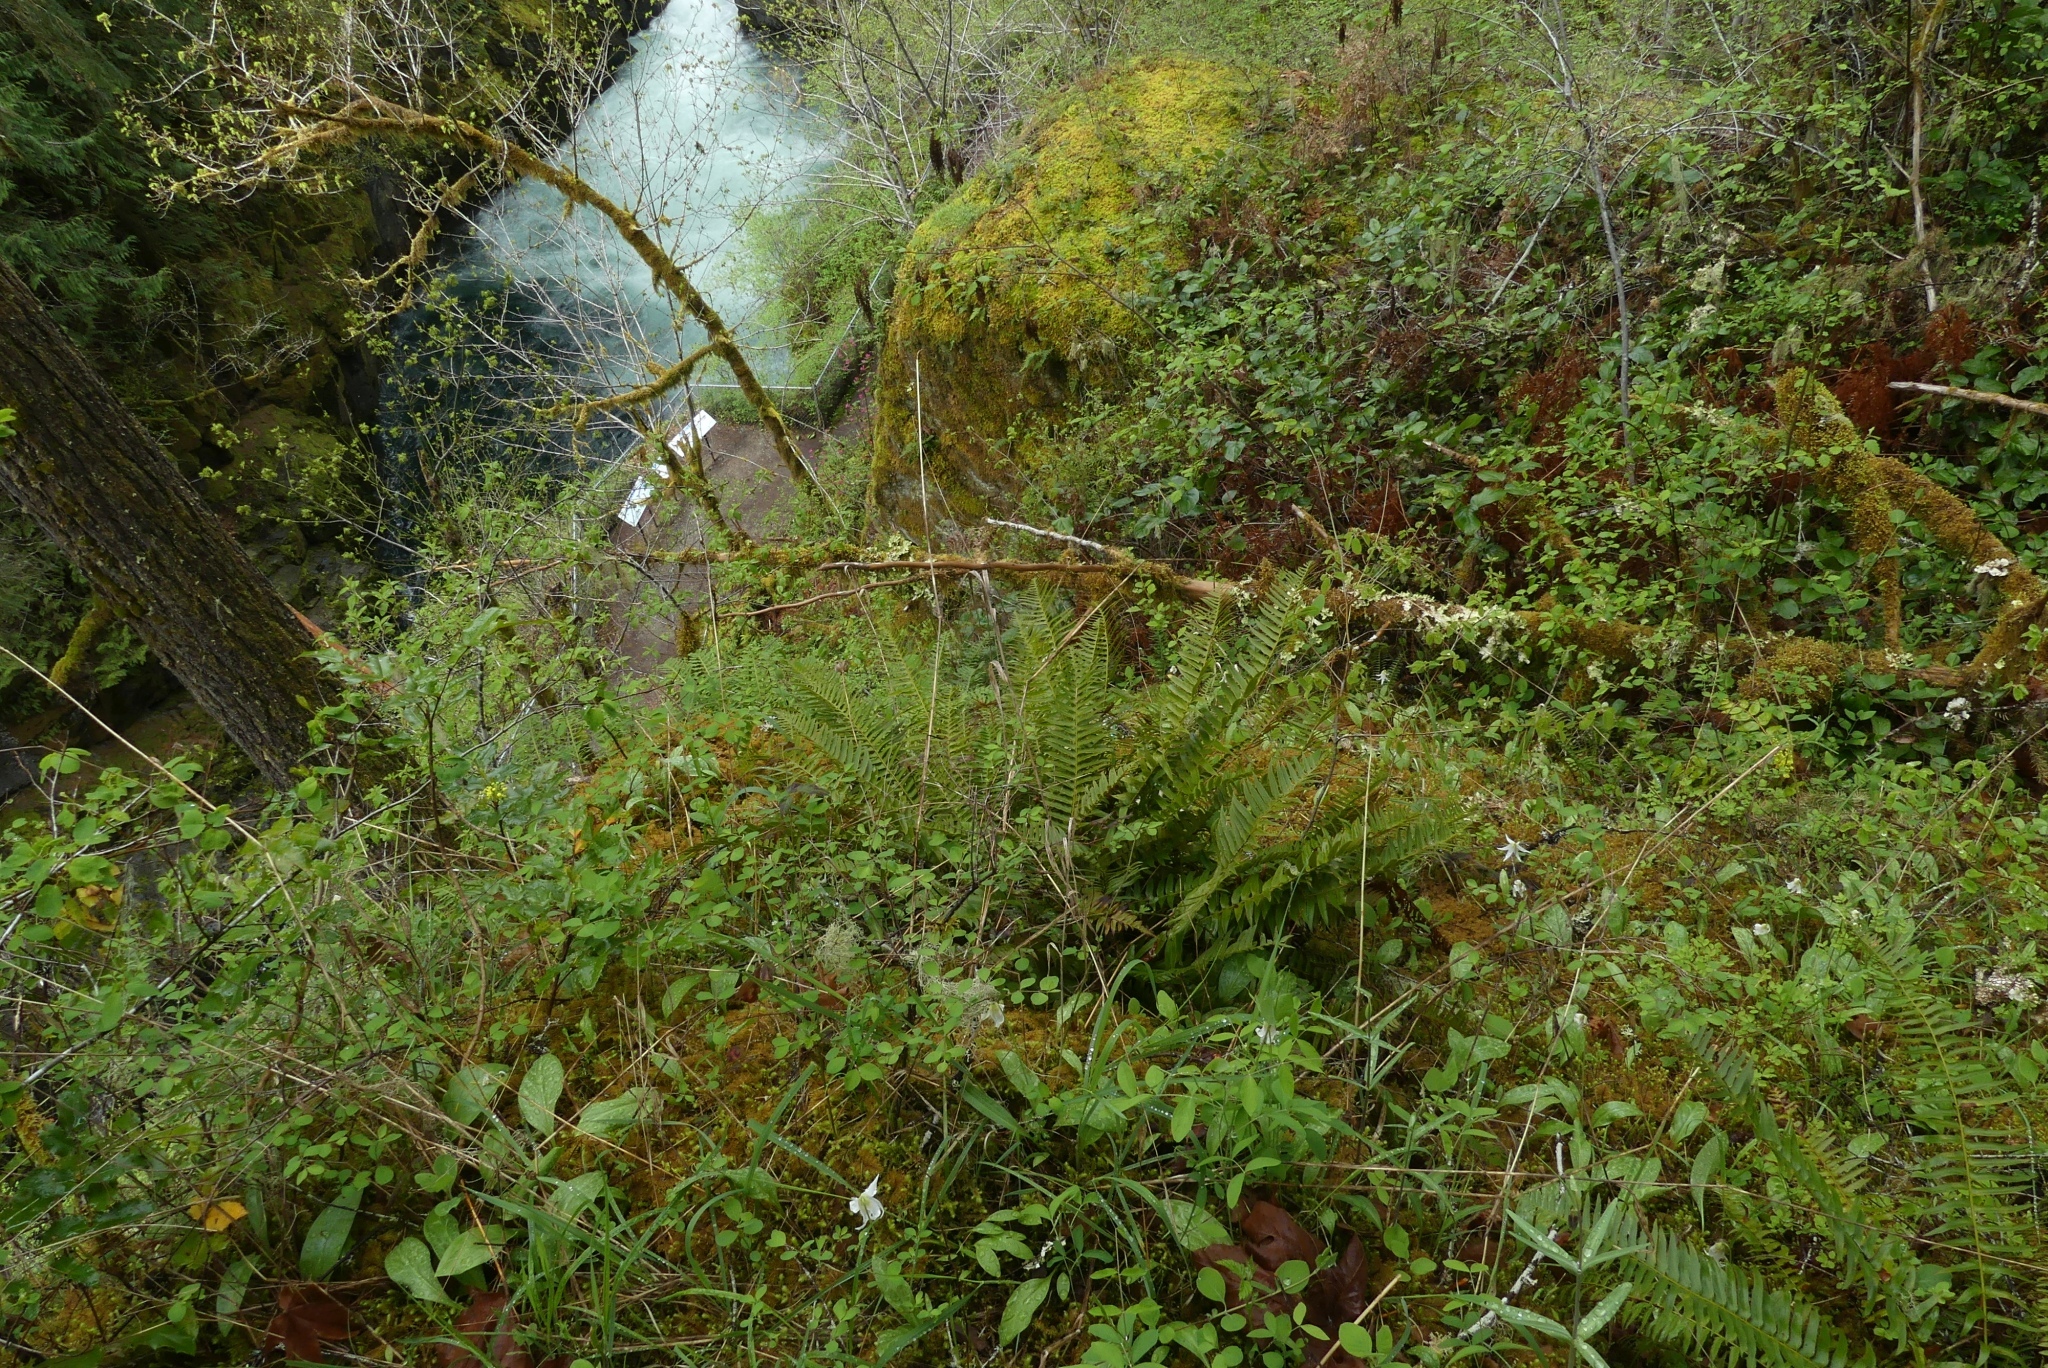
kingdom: Plantae
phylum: Tracheophyta
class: Polypodiopsida
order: Polypodiales
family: Dryopteridaceae
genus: Polystichum
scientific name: Polystichum munitum
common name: Western sword-fern
